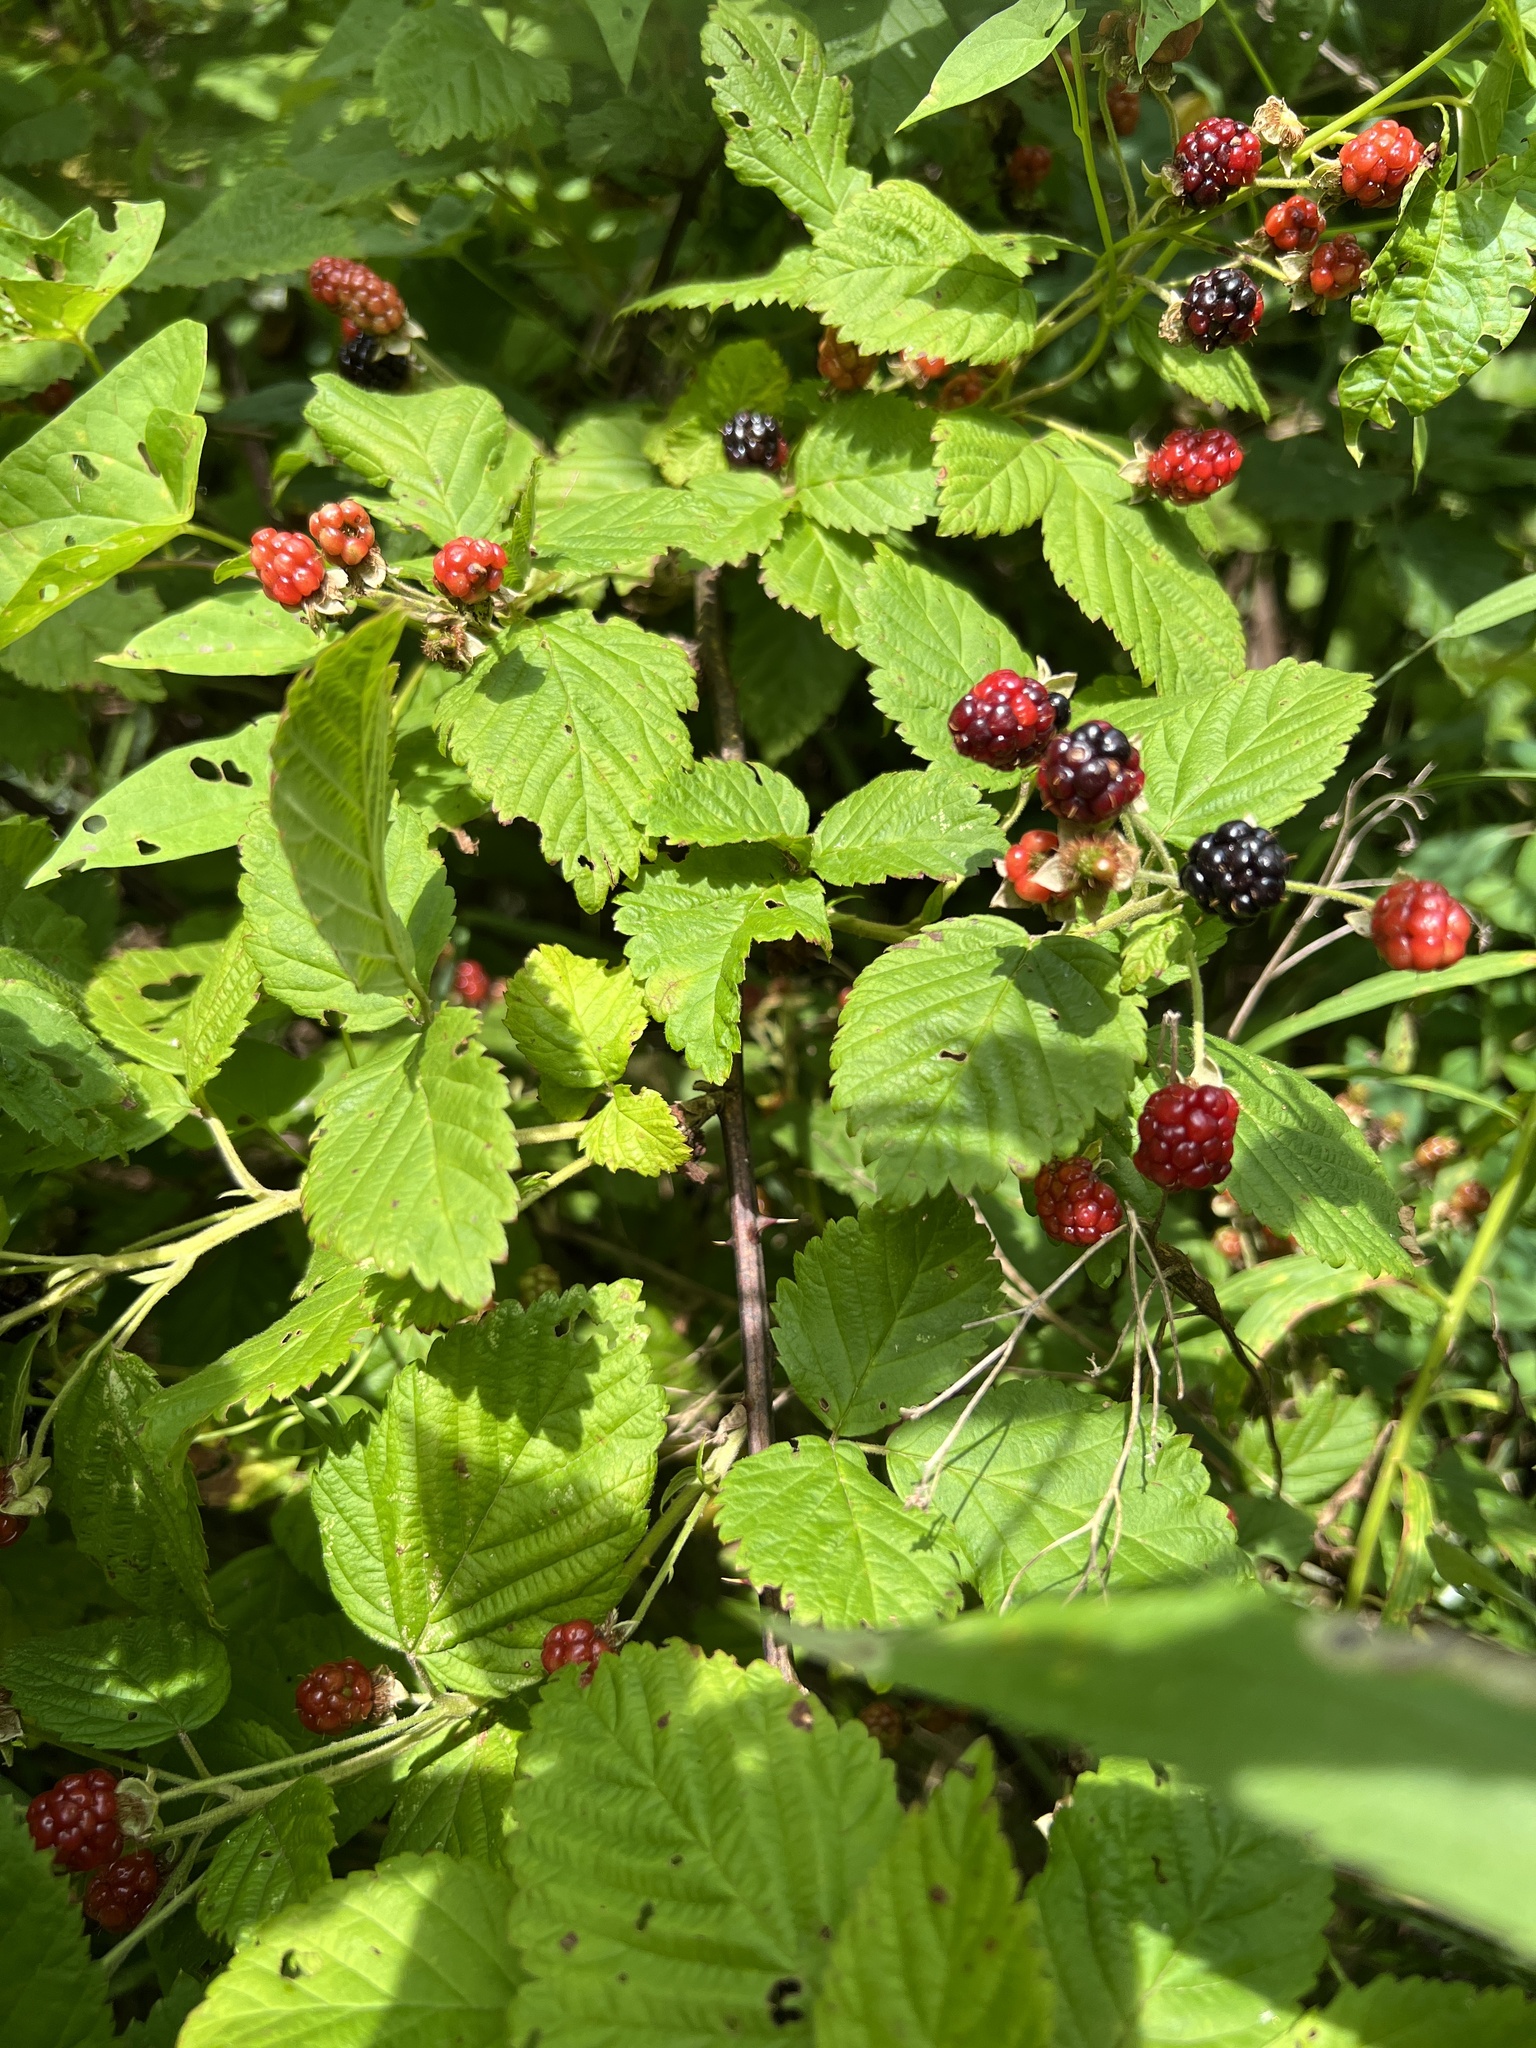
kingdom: Plantae
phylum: Tracheophyta
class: Magnoliopsida
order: Rosales
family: Rosaceae
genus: Rubus
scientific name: Rubus pensilvanicus
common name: Pennsylvania blackberry
